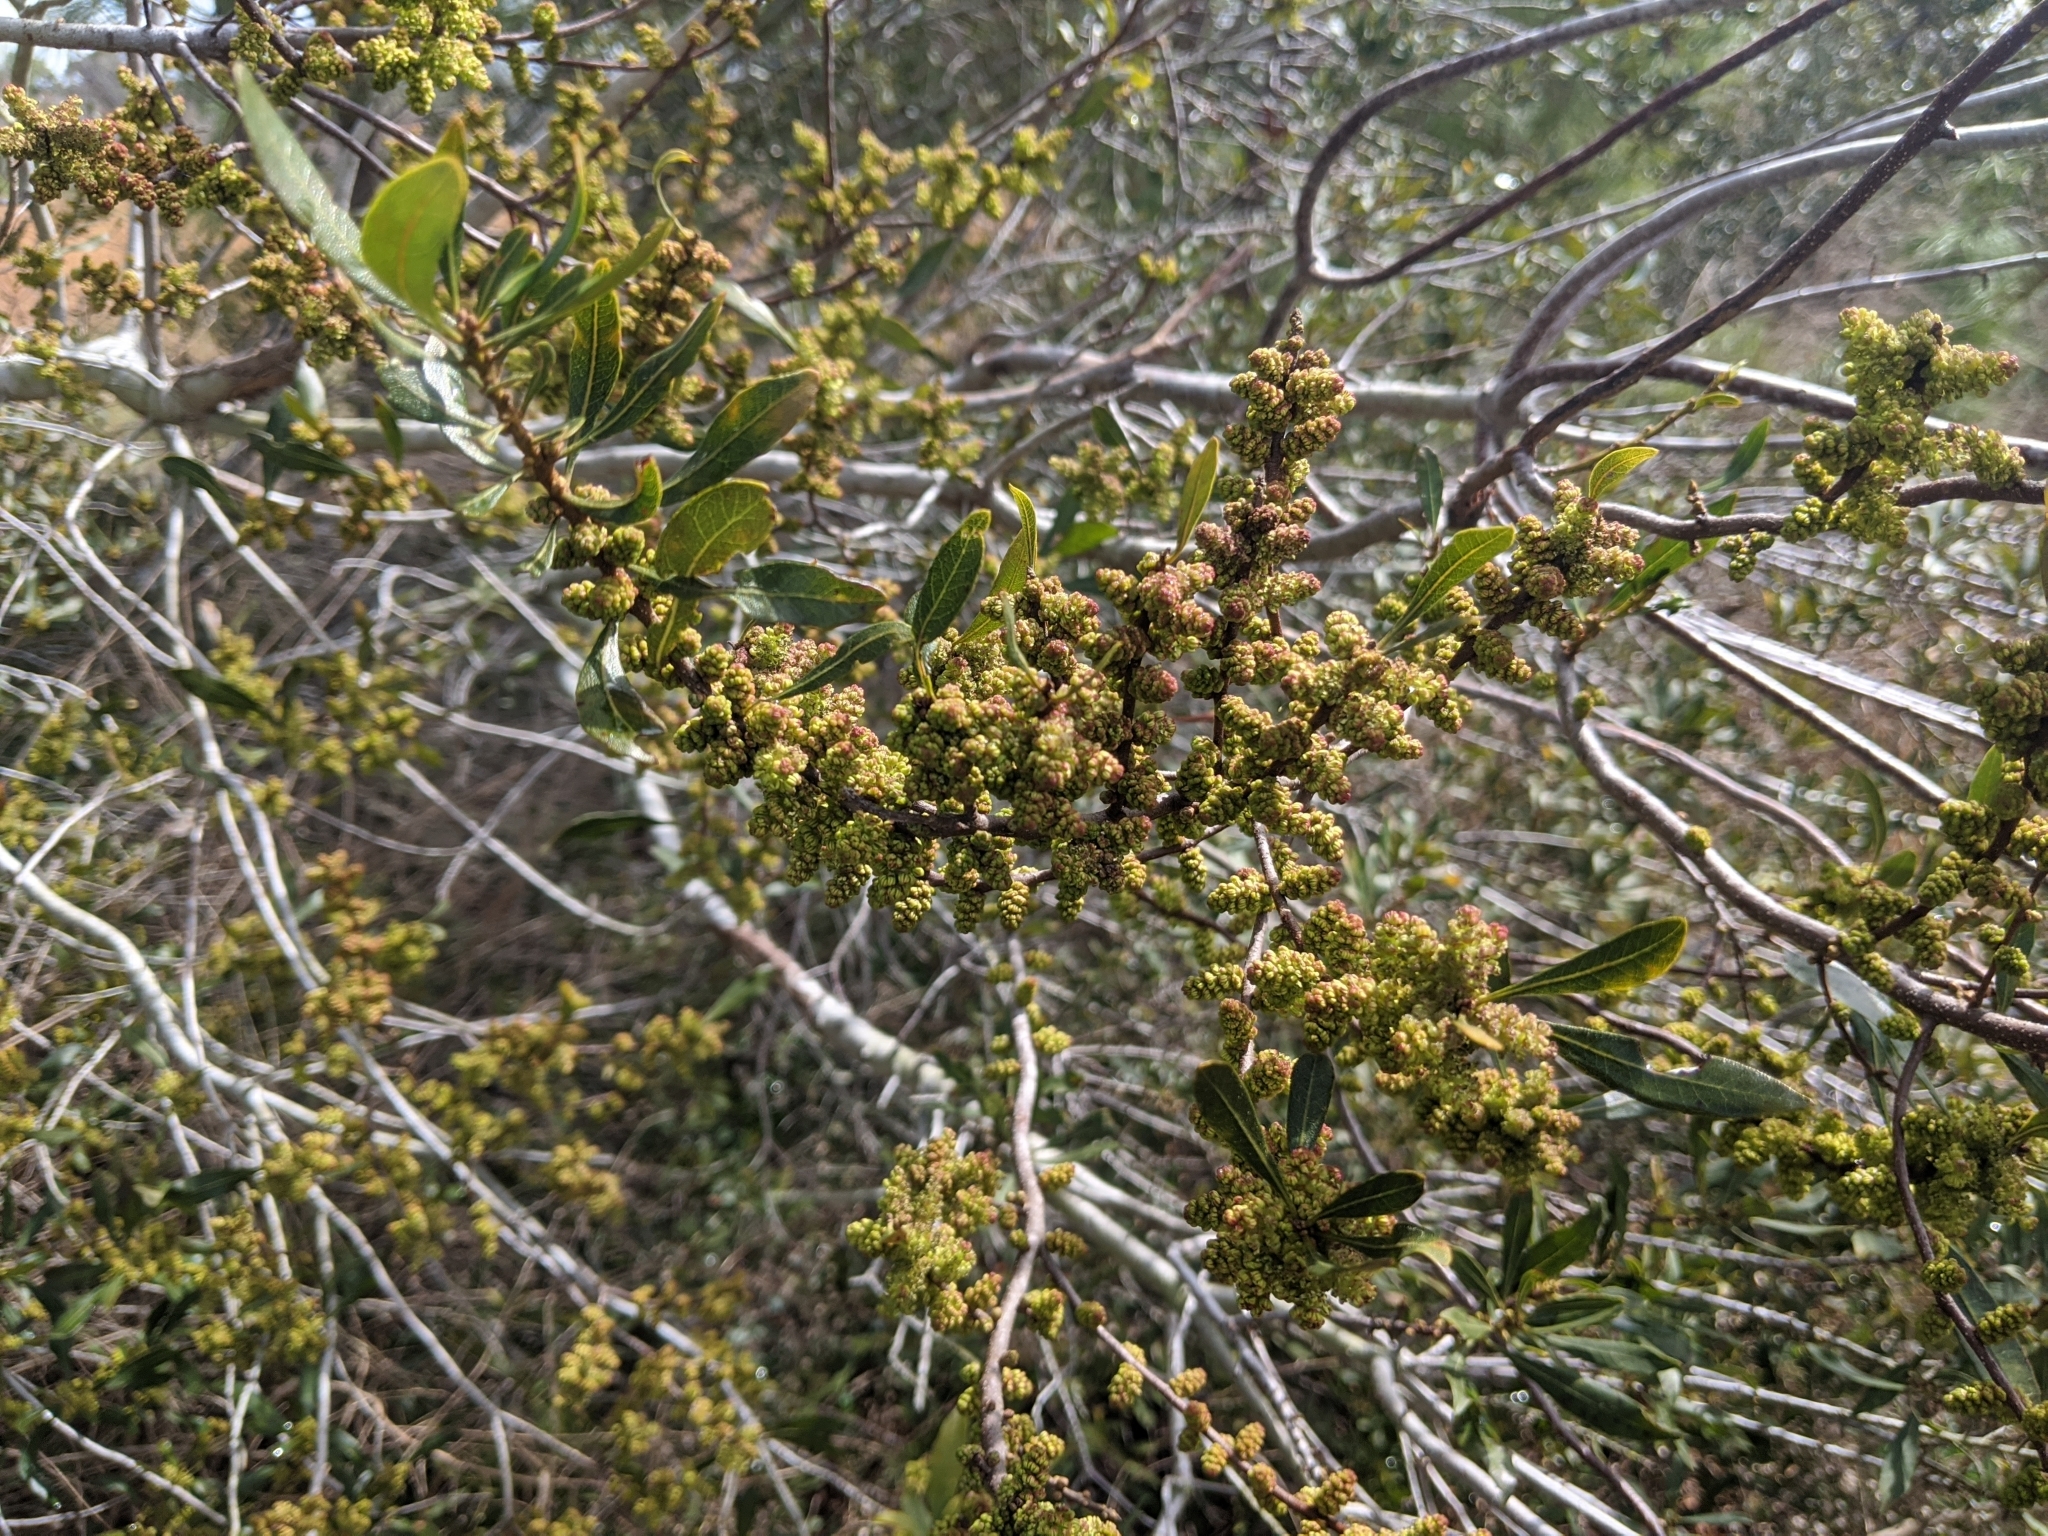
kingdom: Plantae
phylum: Tracheophyta
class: Magnoliopsida
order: Fagales
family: Myricaceae
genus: Morella
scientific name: Morella cerifera
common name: Wax myrtle
